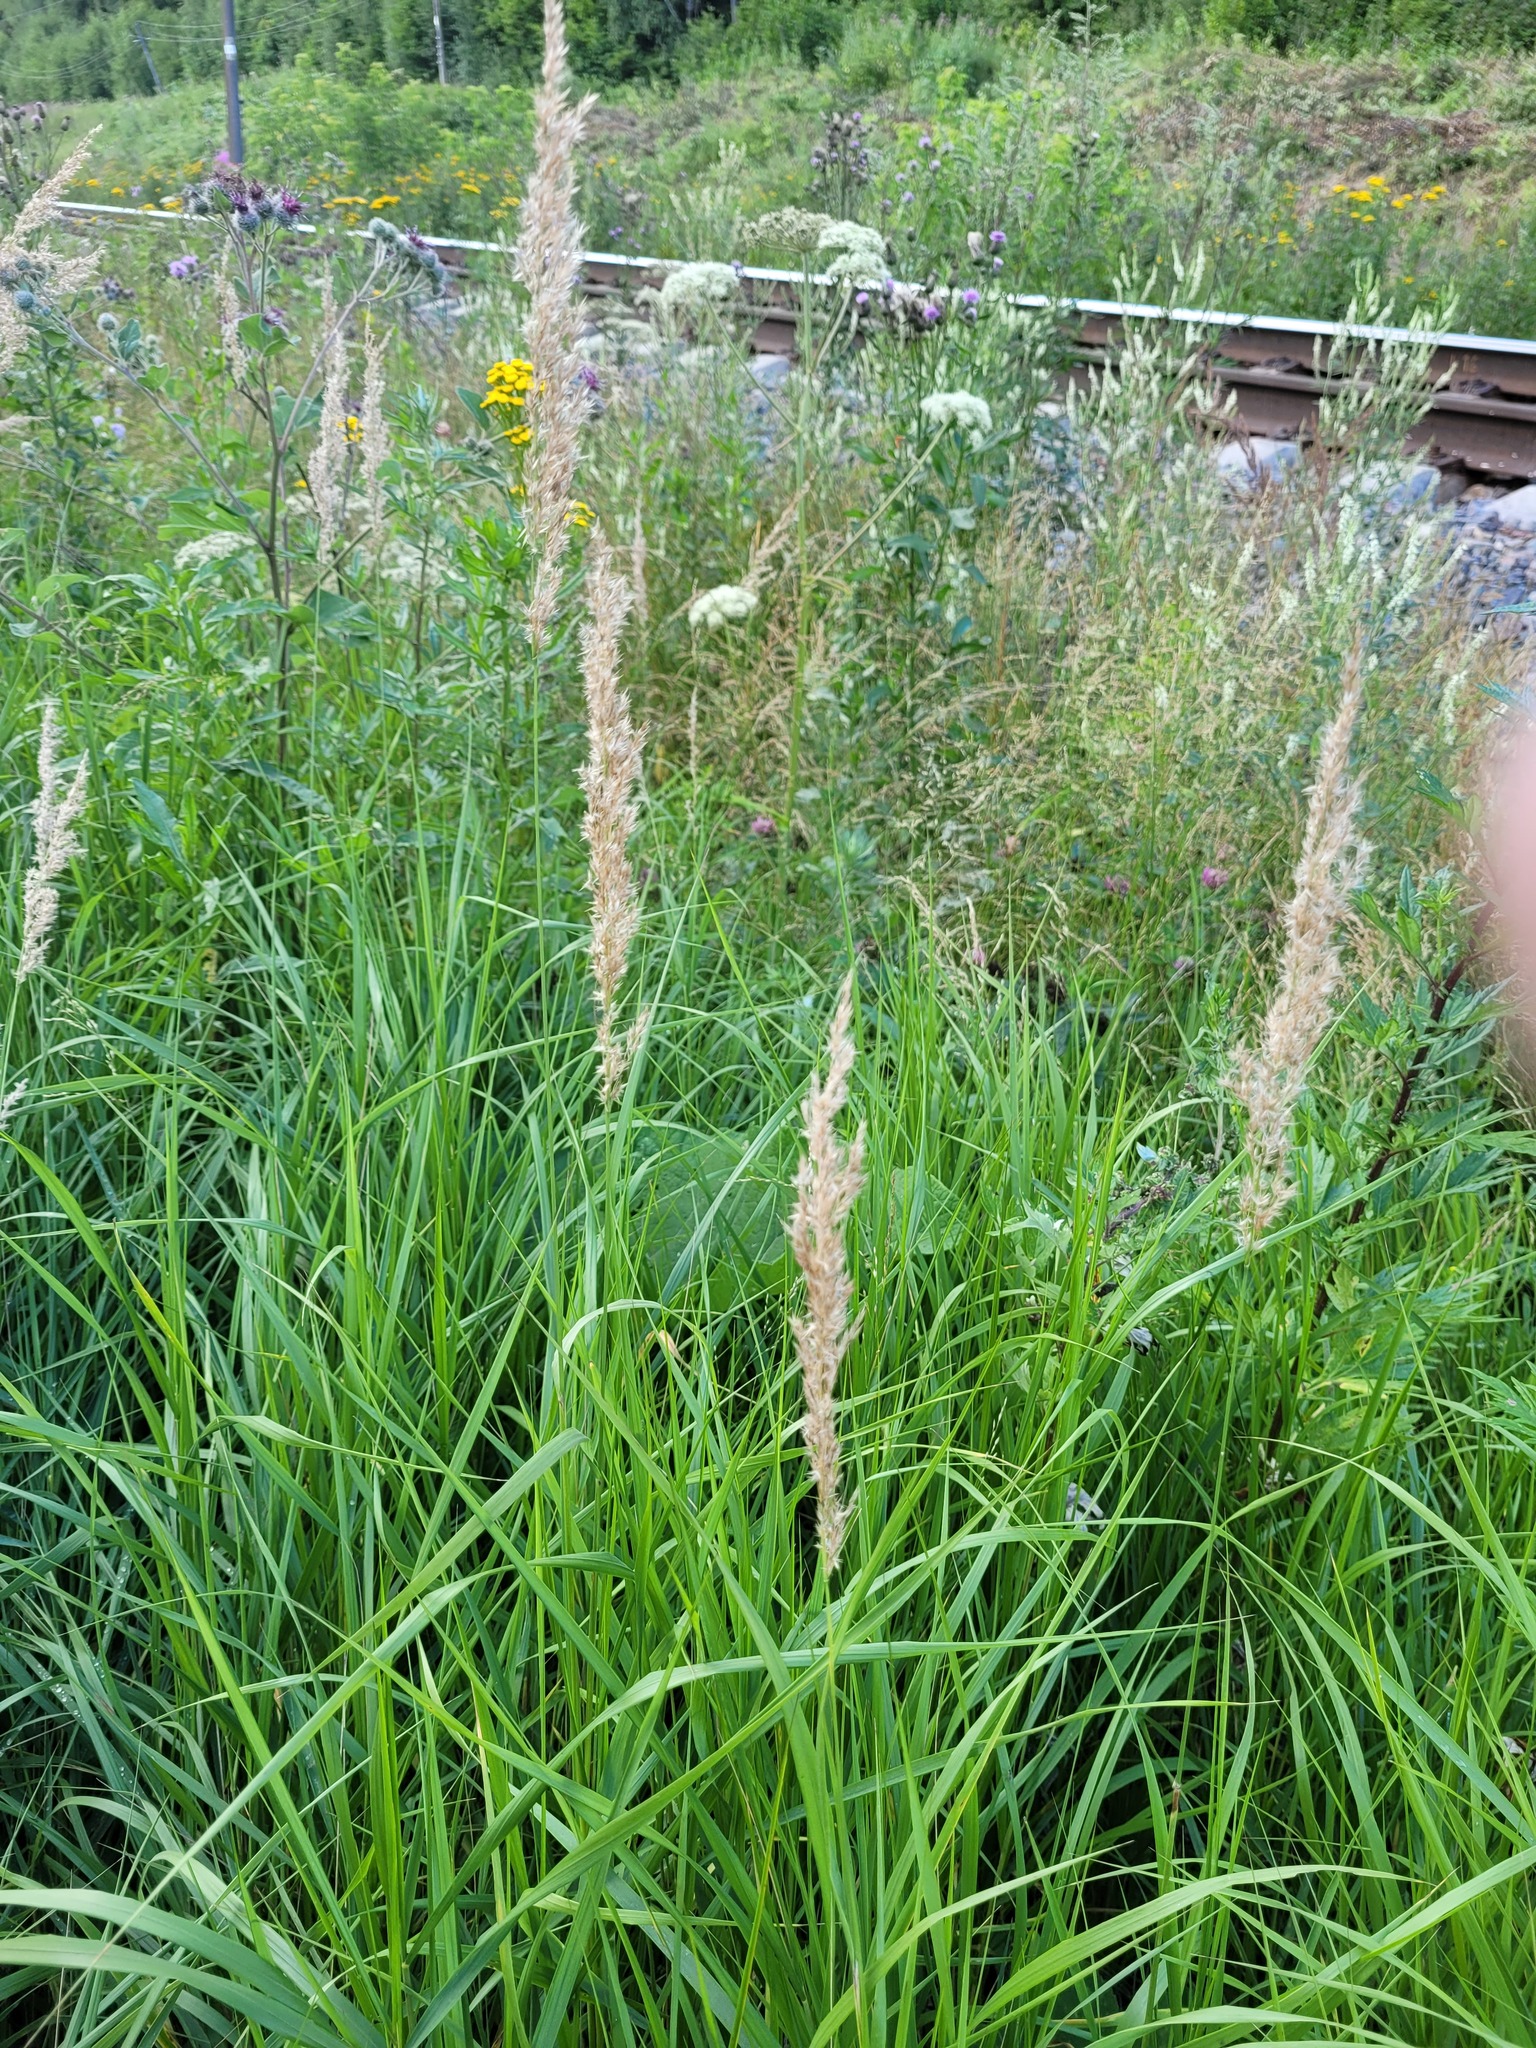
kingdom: Plantae
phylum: Tracheophyta
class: Liliopsida
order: Poales
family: Poaceae
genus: Calamagrostis
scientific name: Calamagrostis canescens
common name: Purple small-reed
